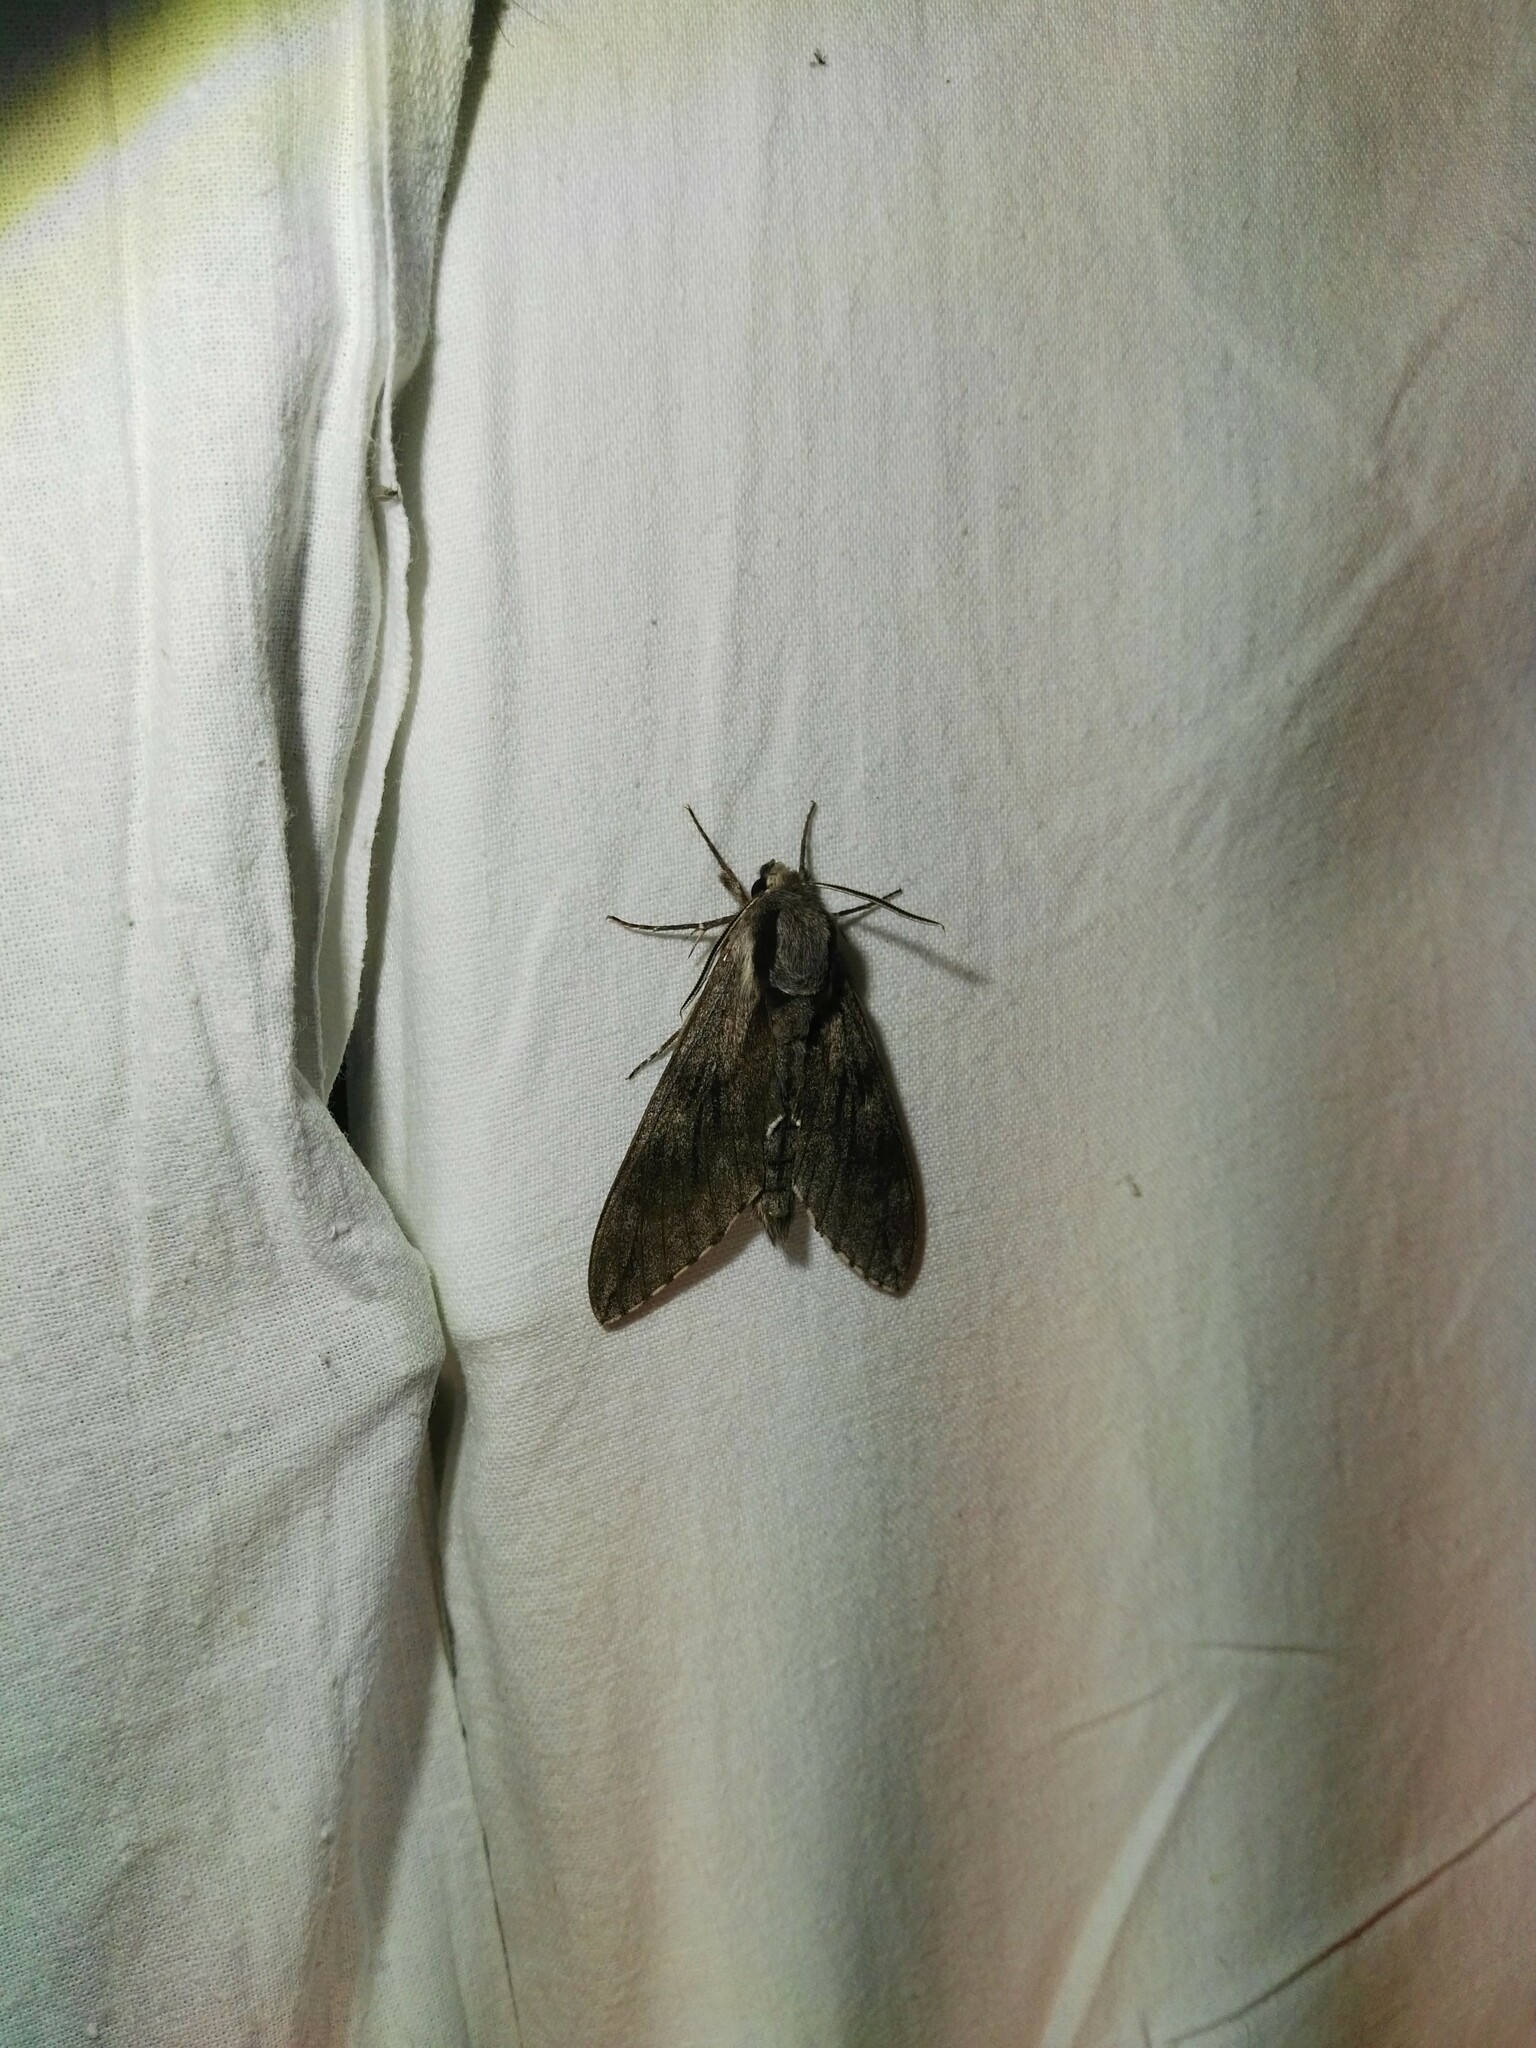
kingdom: Animalia
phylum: Arthropoda
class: Insecta
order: Lepidoptera
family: Sphingidae
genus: Sphinx
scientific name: Sphinx pinastri
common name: Pine hawk-moth
